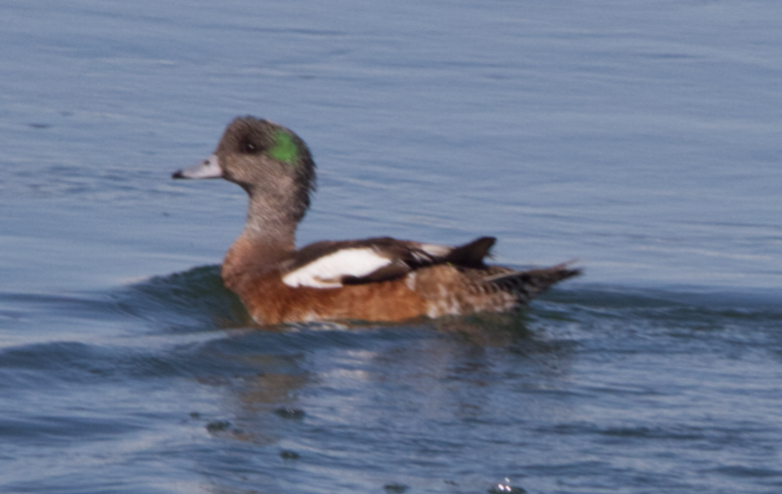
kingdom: Animalia
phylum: Chordata
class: Aves
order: Anseriformes
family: Anatidae
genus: Mareca
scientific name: Mareca americana
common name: American wigeon
